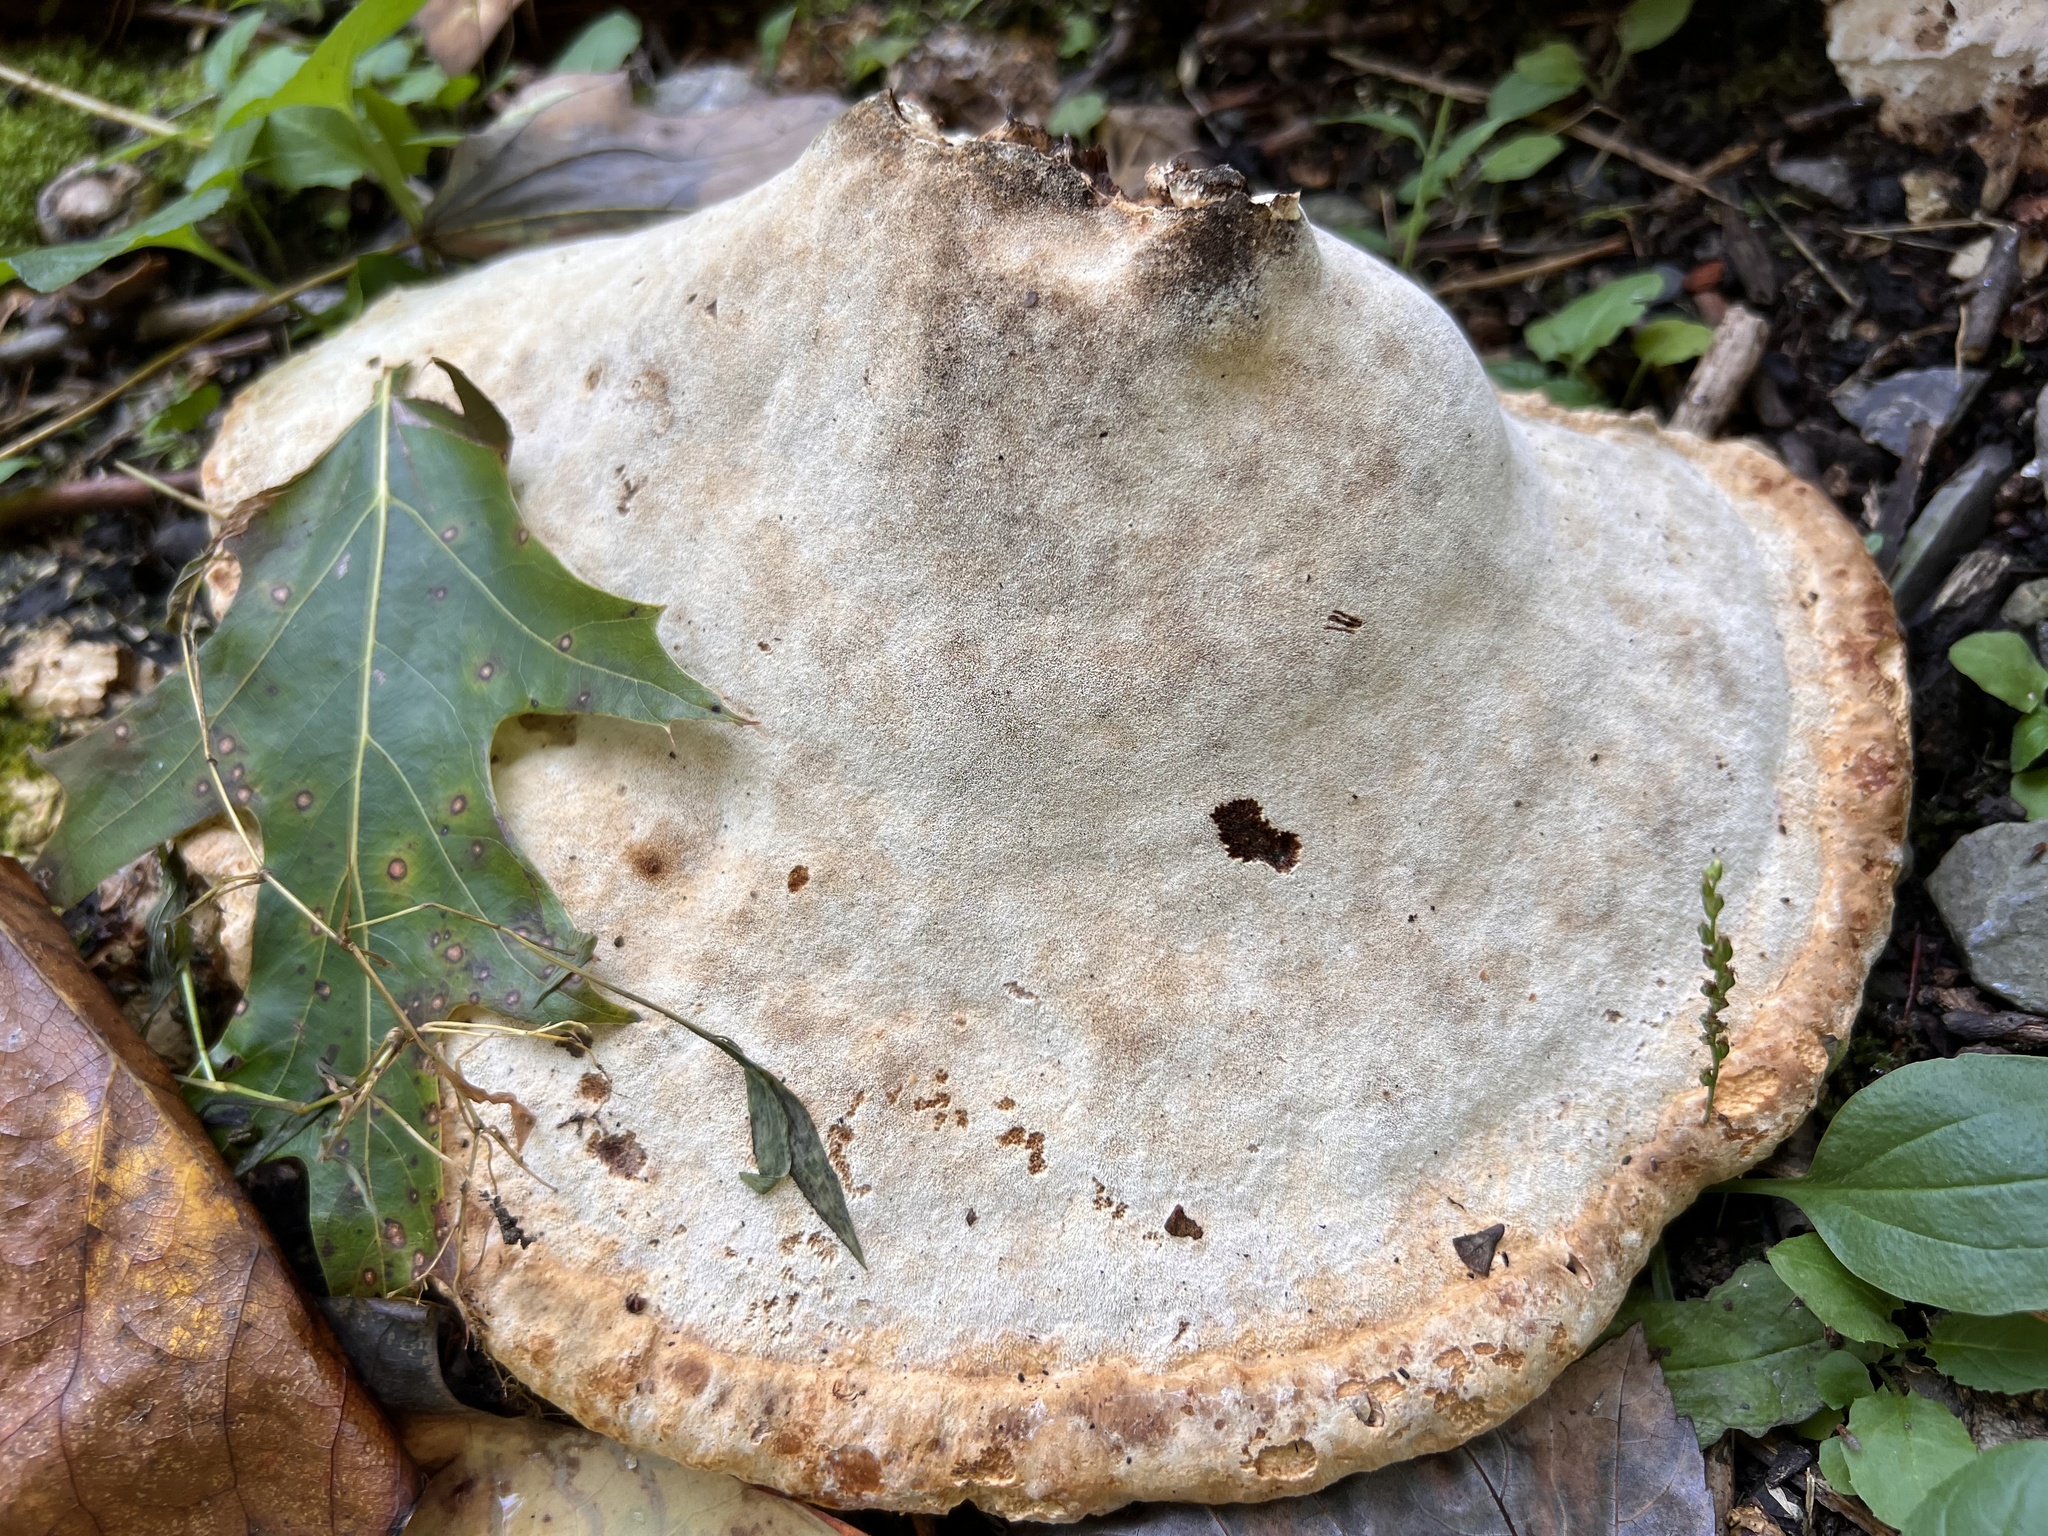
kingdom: Fungi
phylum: Basidiomycota
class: Agaricomycetes
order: Hymenochaetales
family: Hymenochaetaceae
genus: Pseudoinonotus
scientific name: Pseudoinonotus dryadeus
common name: Oak bracket
